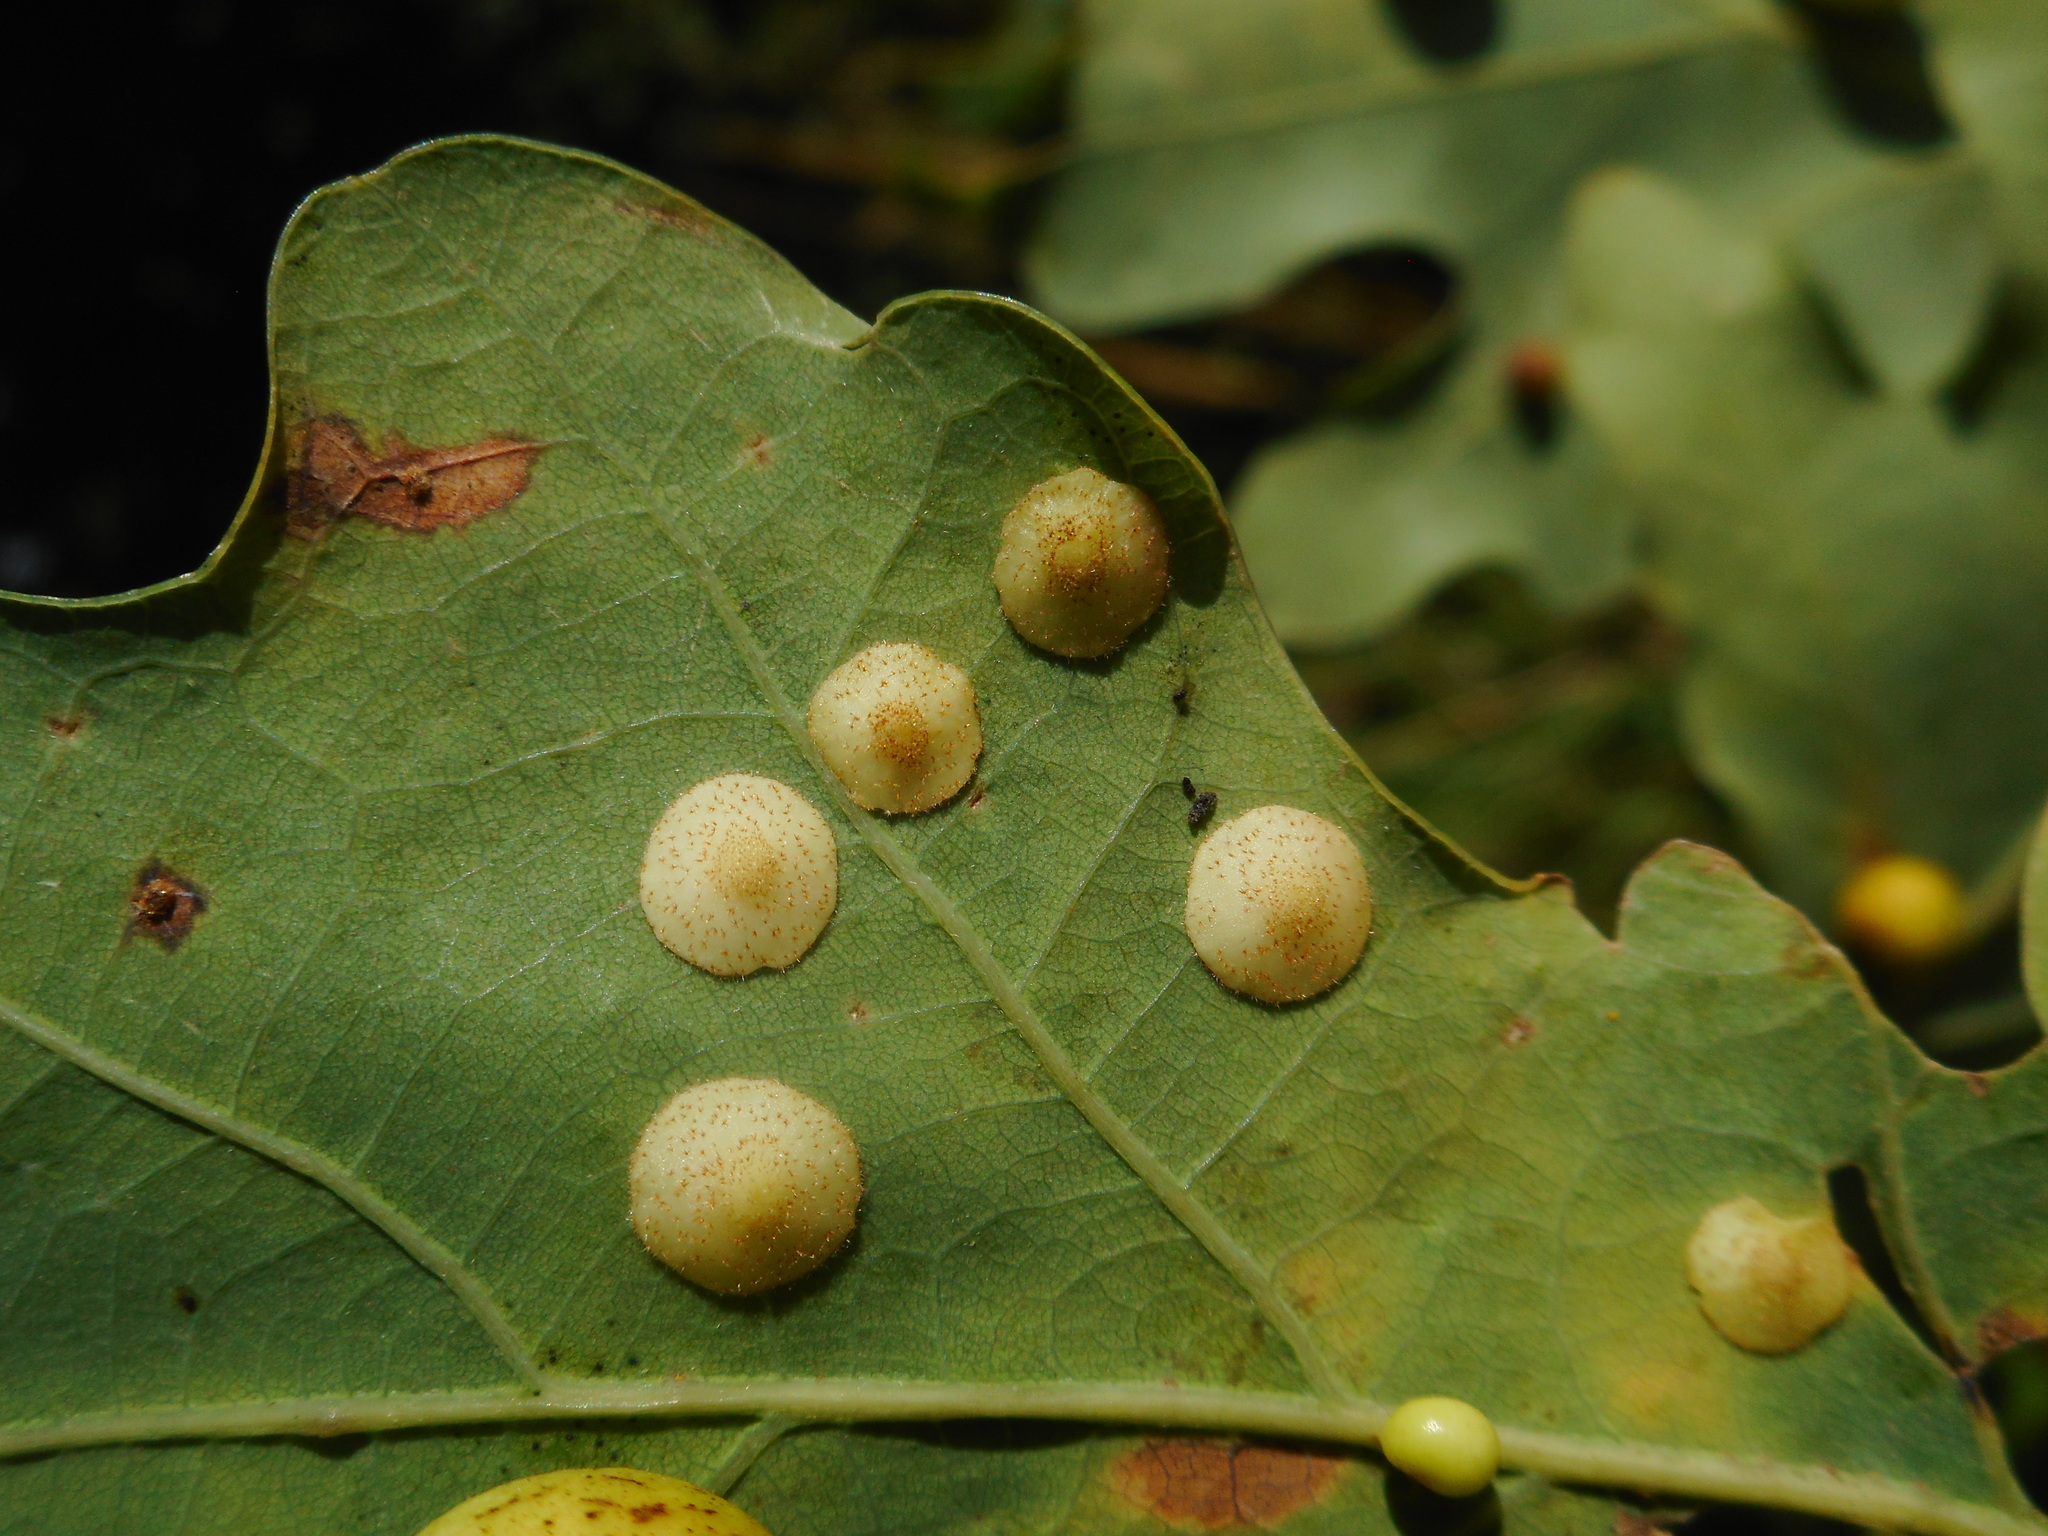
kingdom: Animalia
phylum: Arthropoda
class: Insecta
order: Hymenoptera
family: Cynipidae
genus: Neuroterus
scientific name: Neuroterus quercusbaccarum
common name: Common spangle gall
